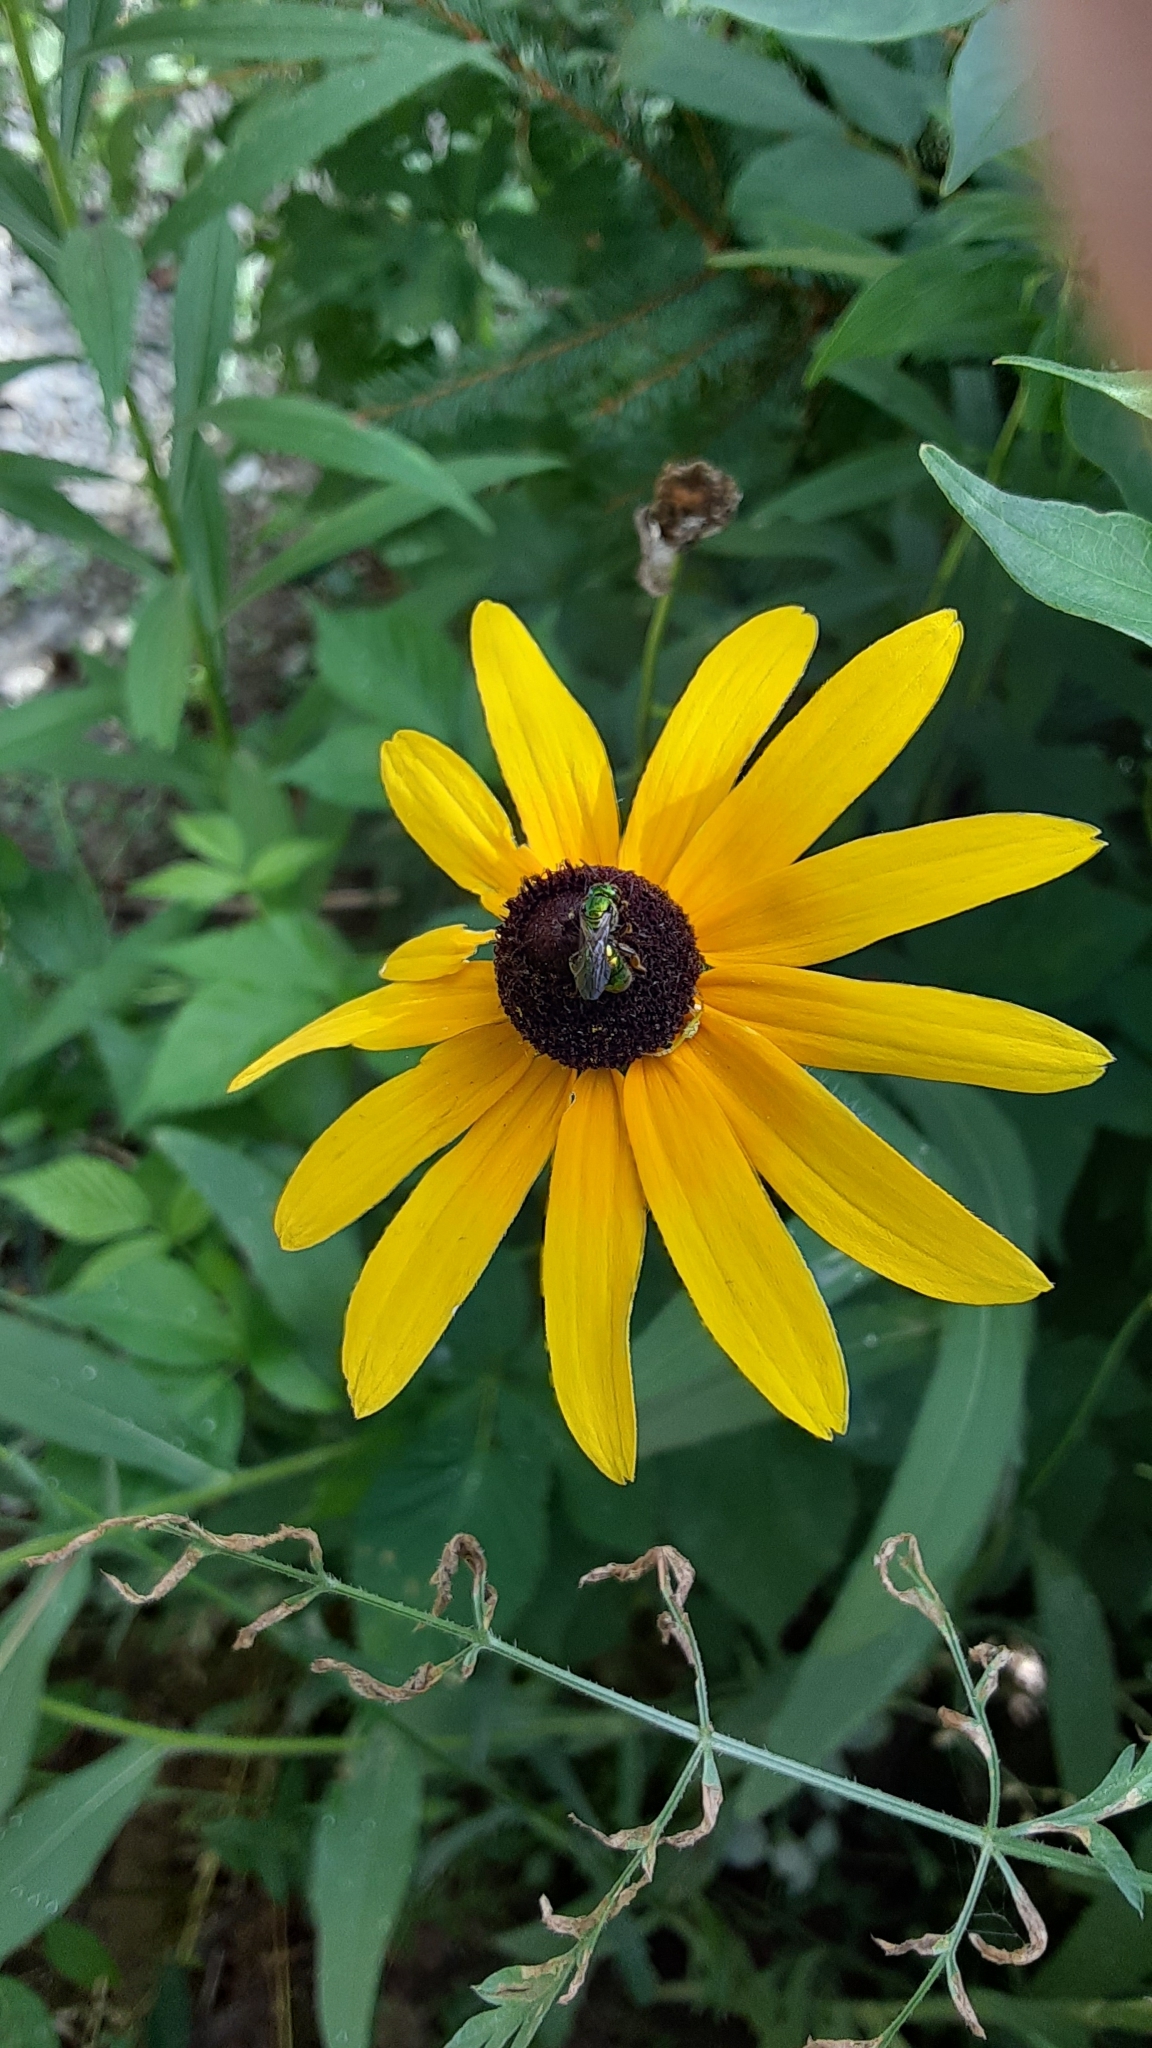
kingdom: Plantae
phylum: Tracheophyta
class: Magnoliopsida
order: Asterales
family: Asteraceae
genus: Rudbeckia
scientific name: Rudbeckia hirta
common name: Black-eyed-susan
